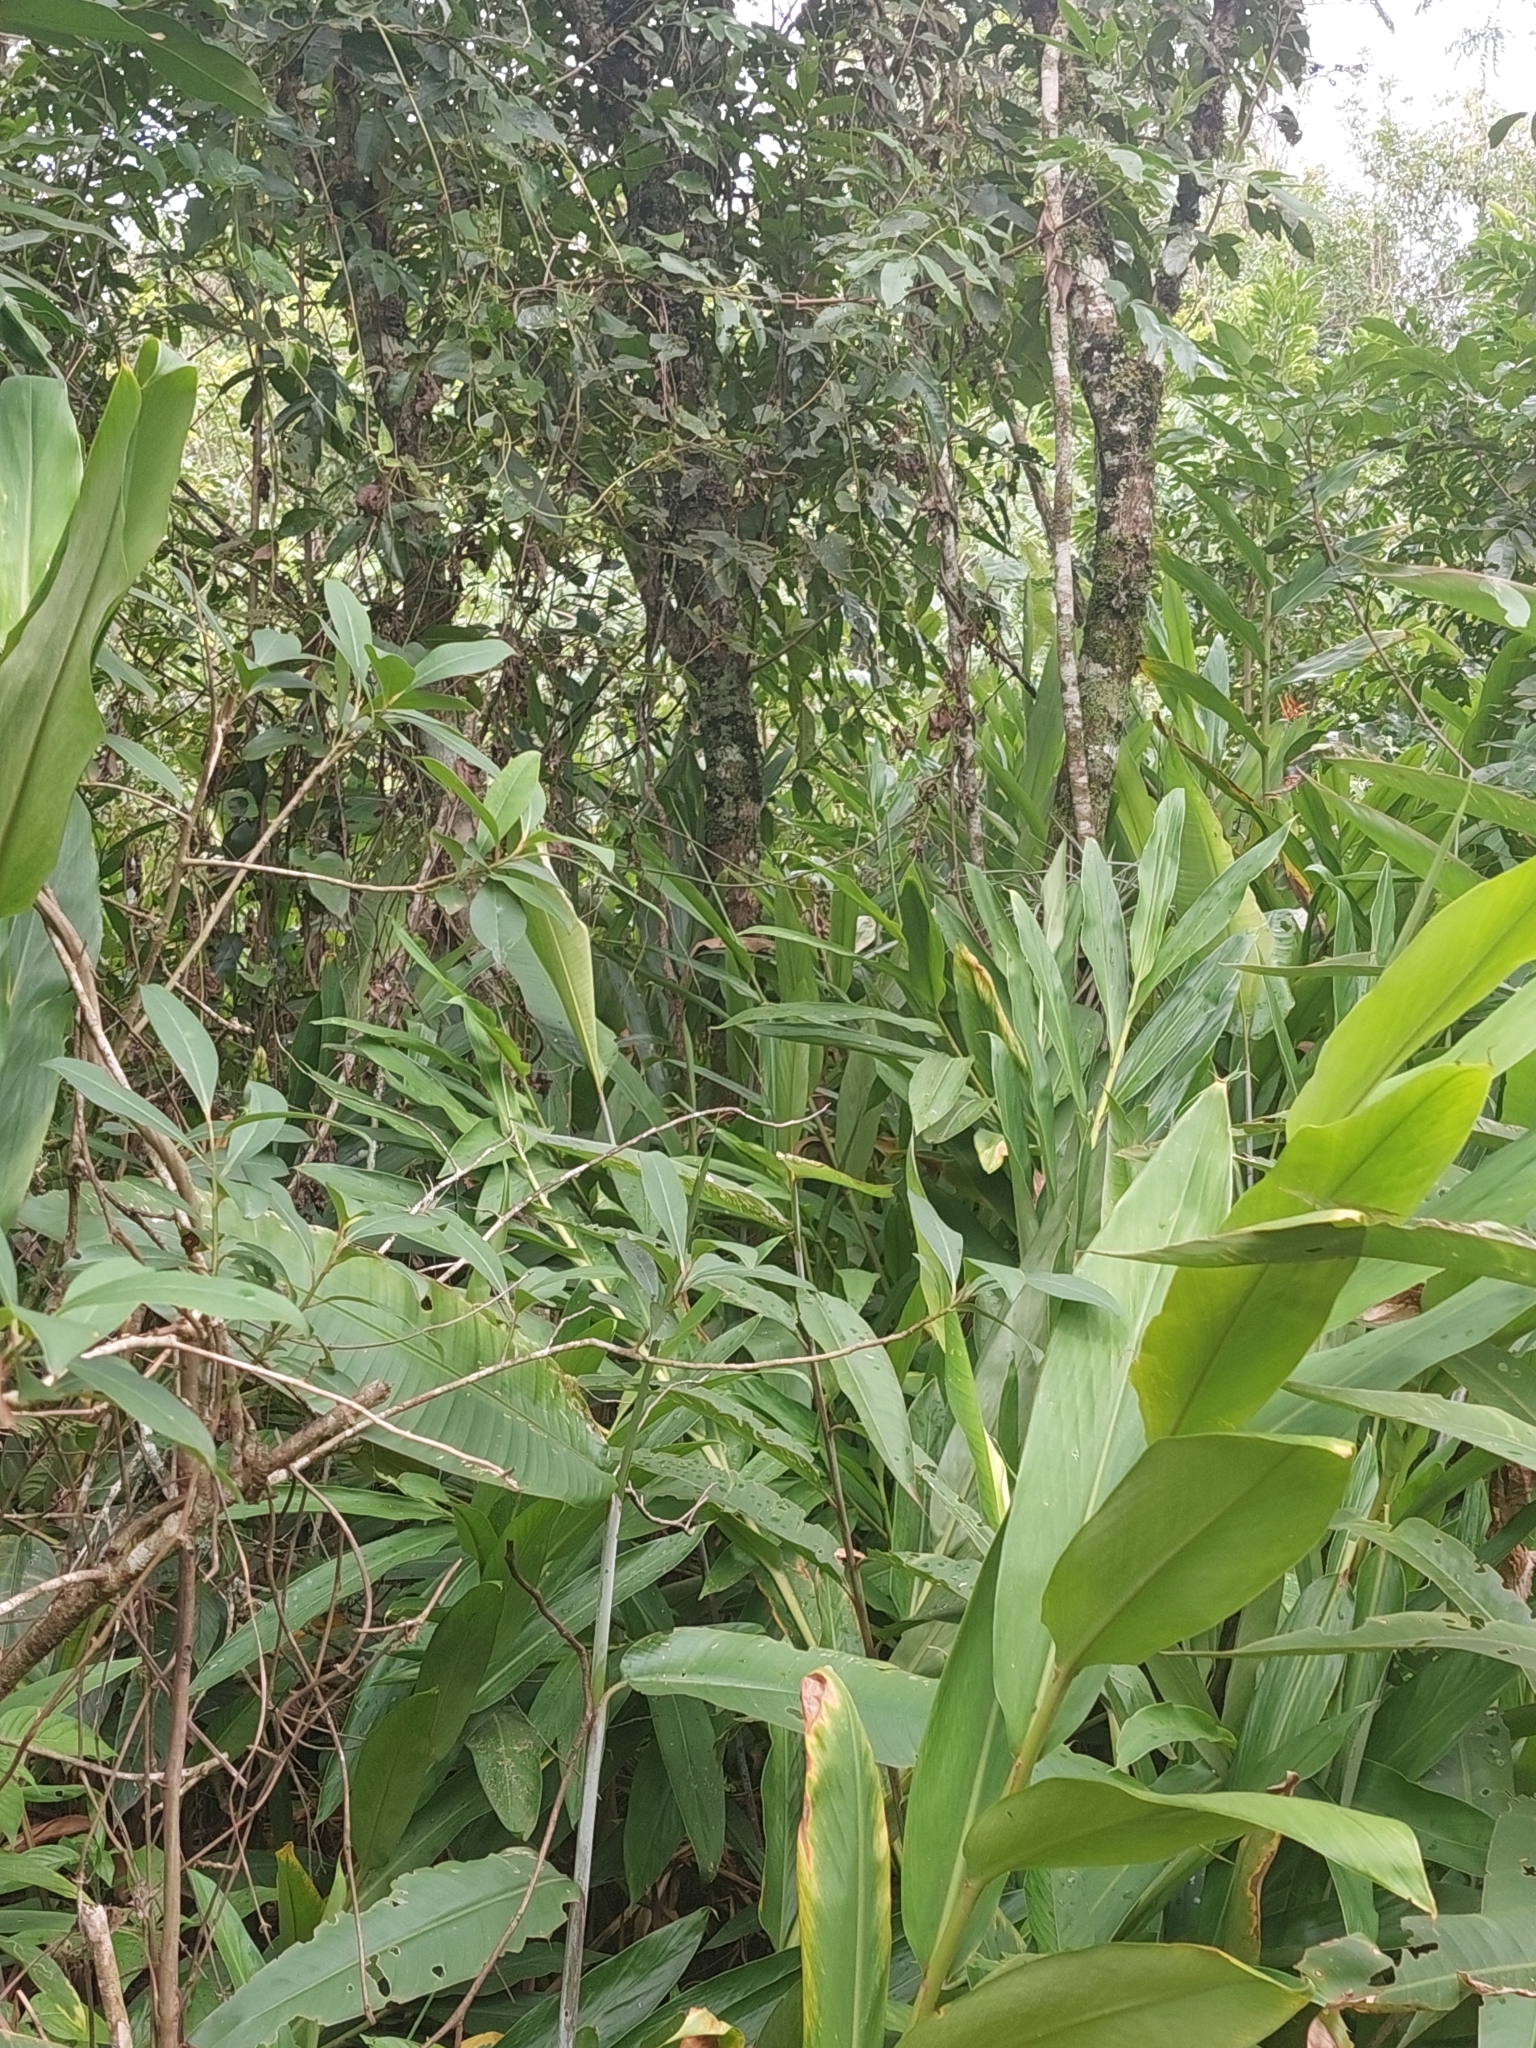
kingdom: Plantae
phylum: Tracheophyta
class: Liliopsida
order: Zingiberales
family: Zingiberaceae
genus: Hedychium
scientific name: Hedychium coronarium
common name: White garland-lily
